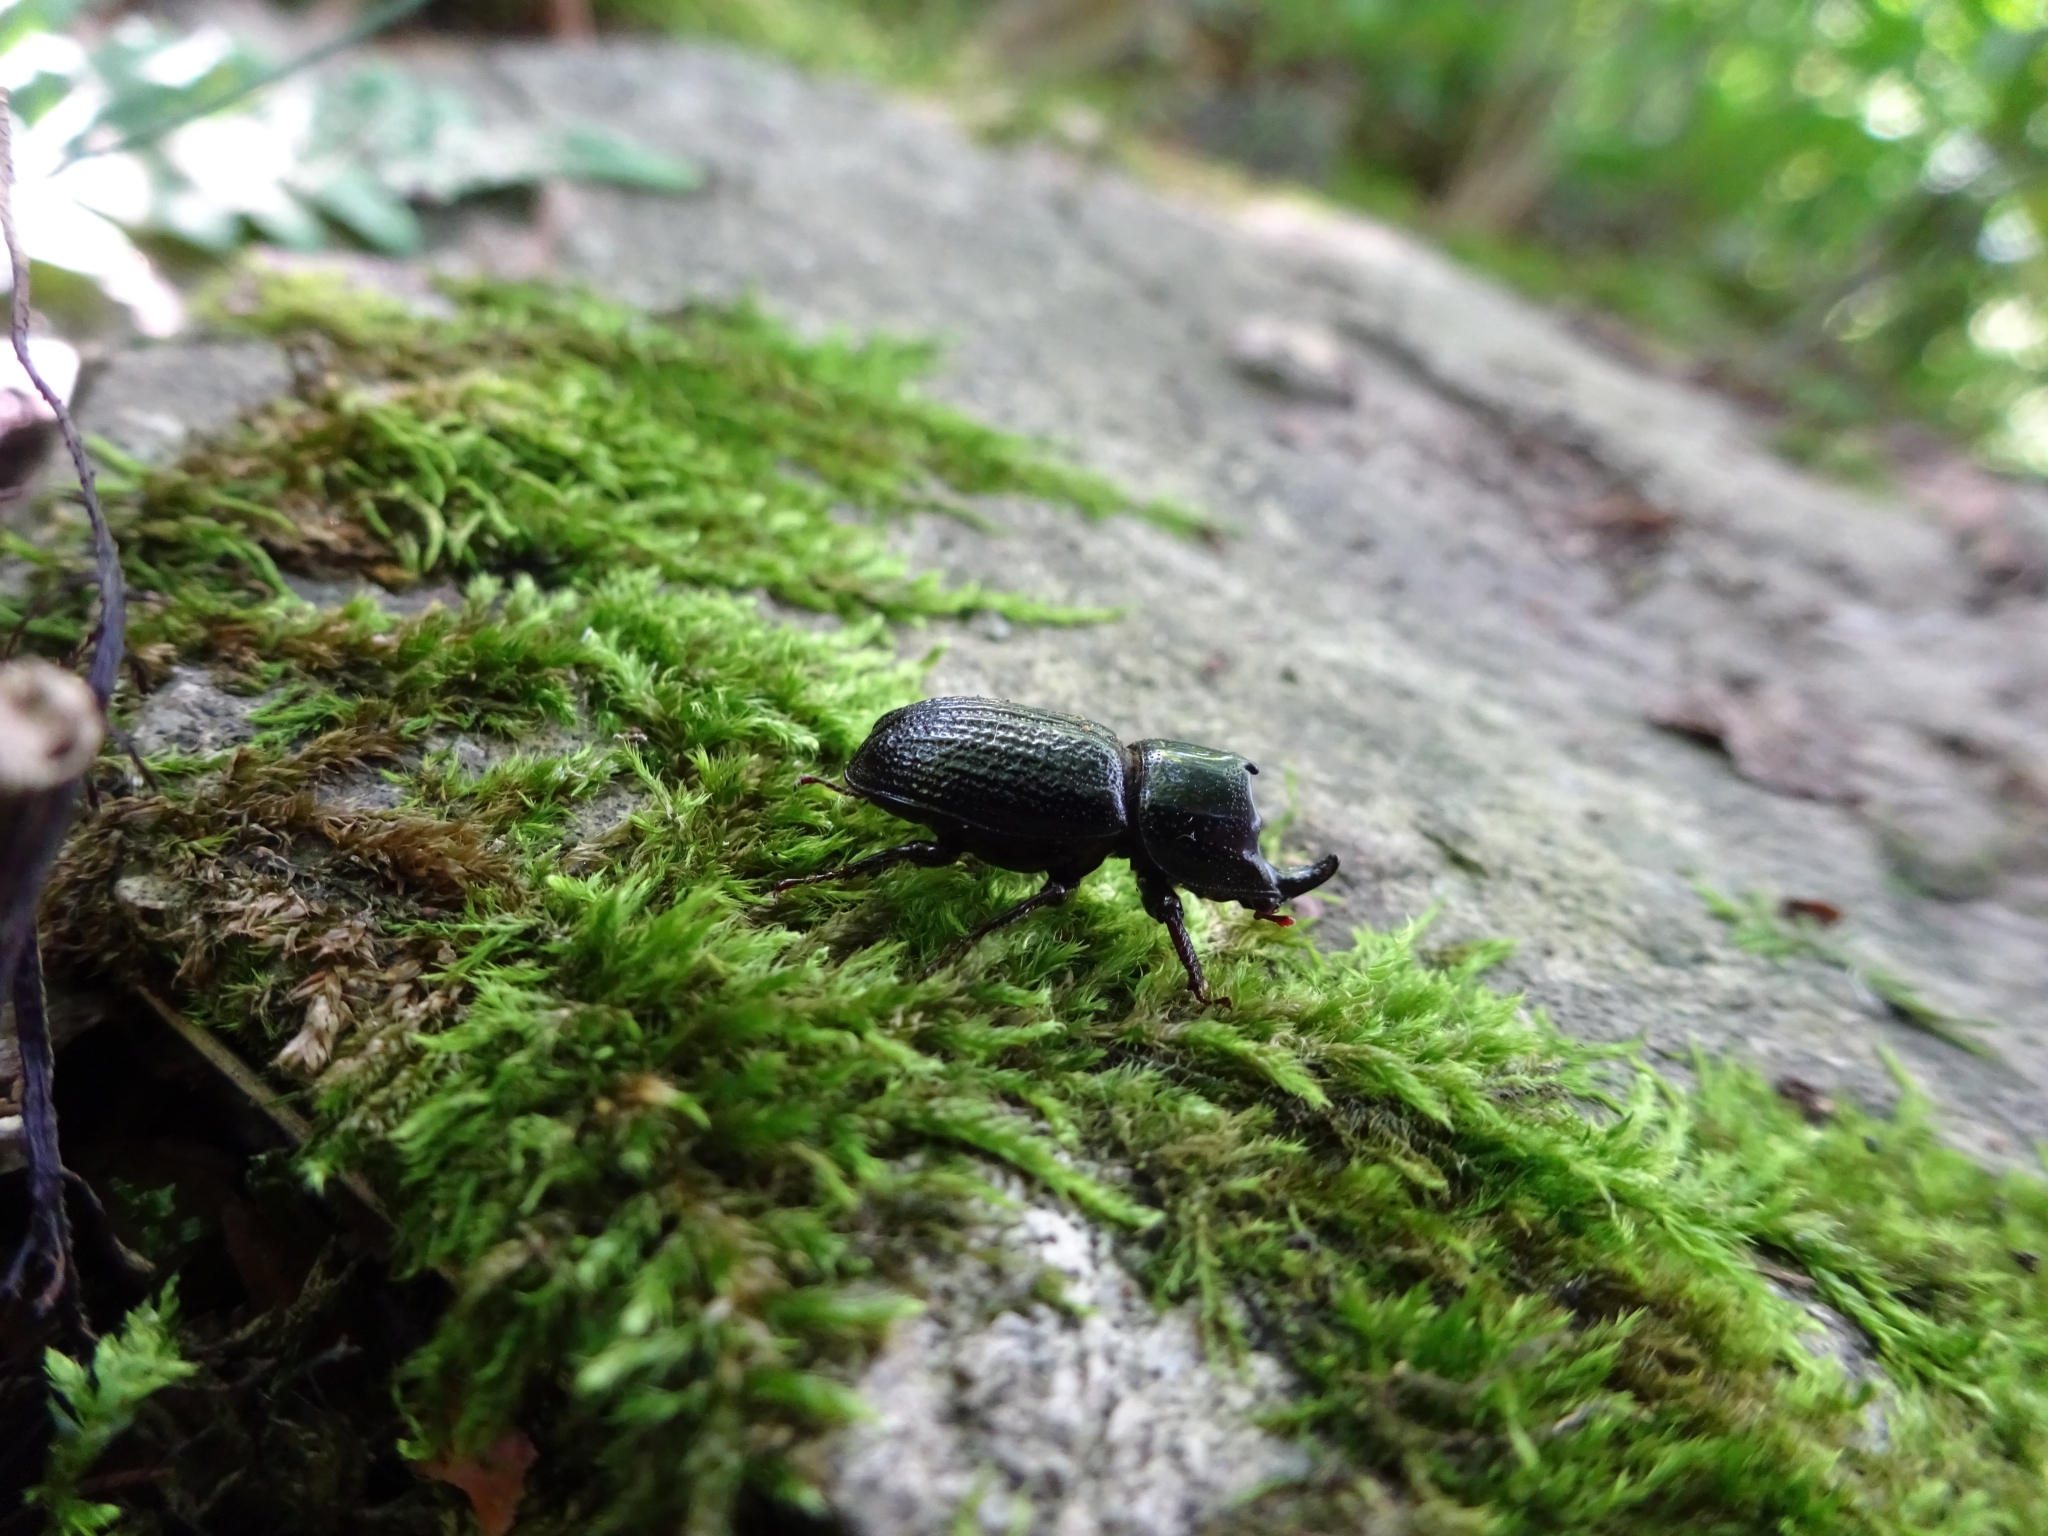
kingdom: Animalia
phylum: Arthropoda
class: Insecta
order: Coleoptera
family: Lucanidae
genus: Sinodendron
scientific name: Sinodendron cylindricum
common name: Rhinoceros beetle
